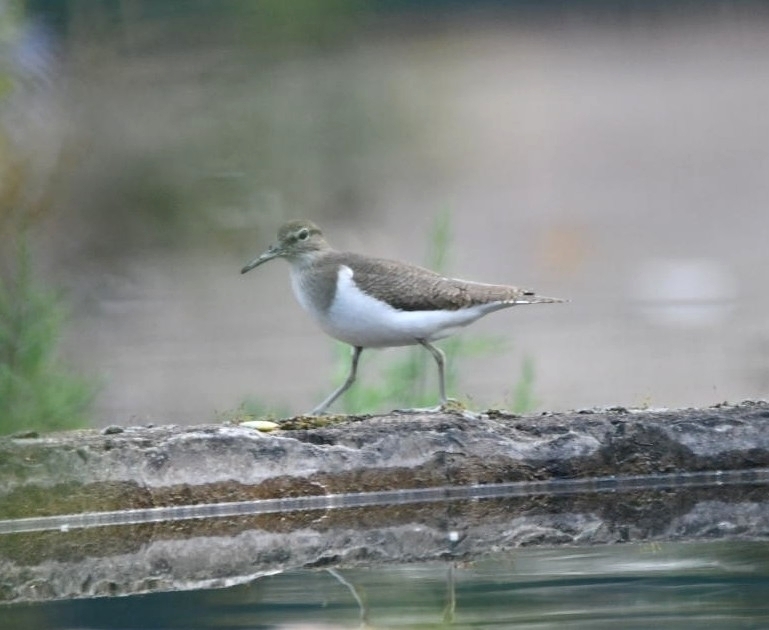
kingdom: Animalia
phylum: Chordata
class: Aves
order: Charadriiformes
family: Scolopacidae
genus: Actitis
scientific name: Actitis hypoleucos
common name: Common sandpiper
